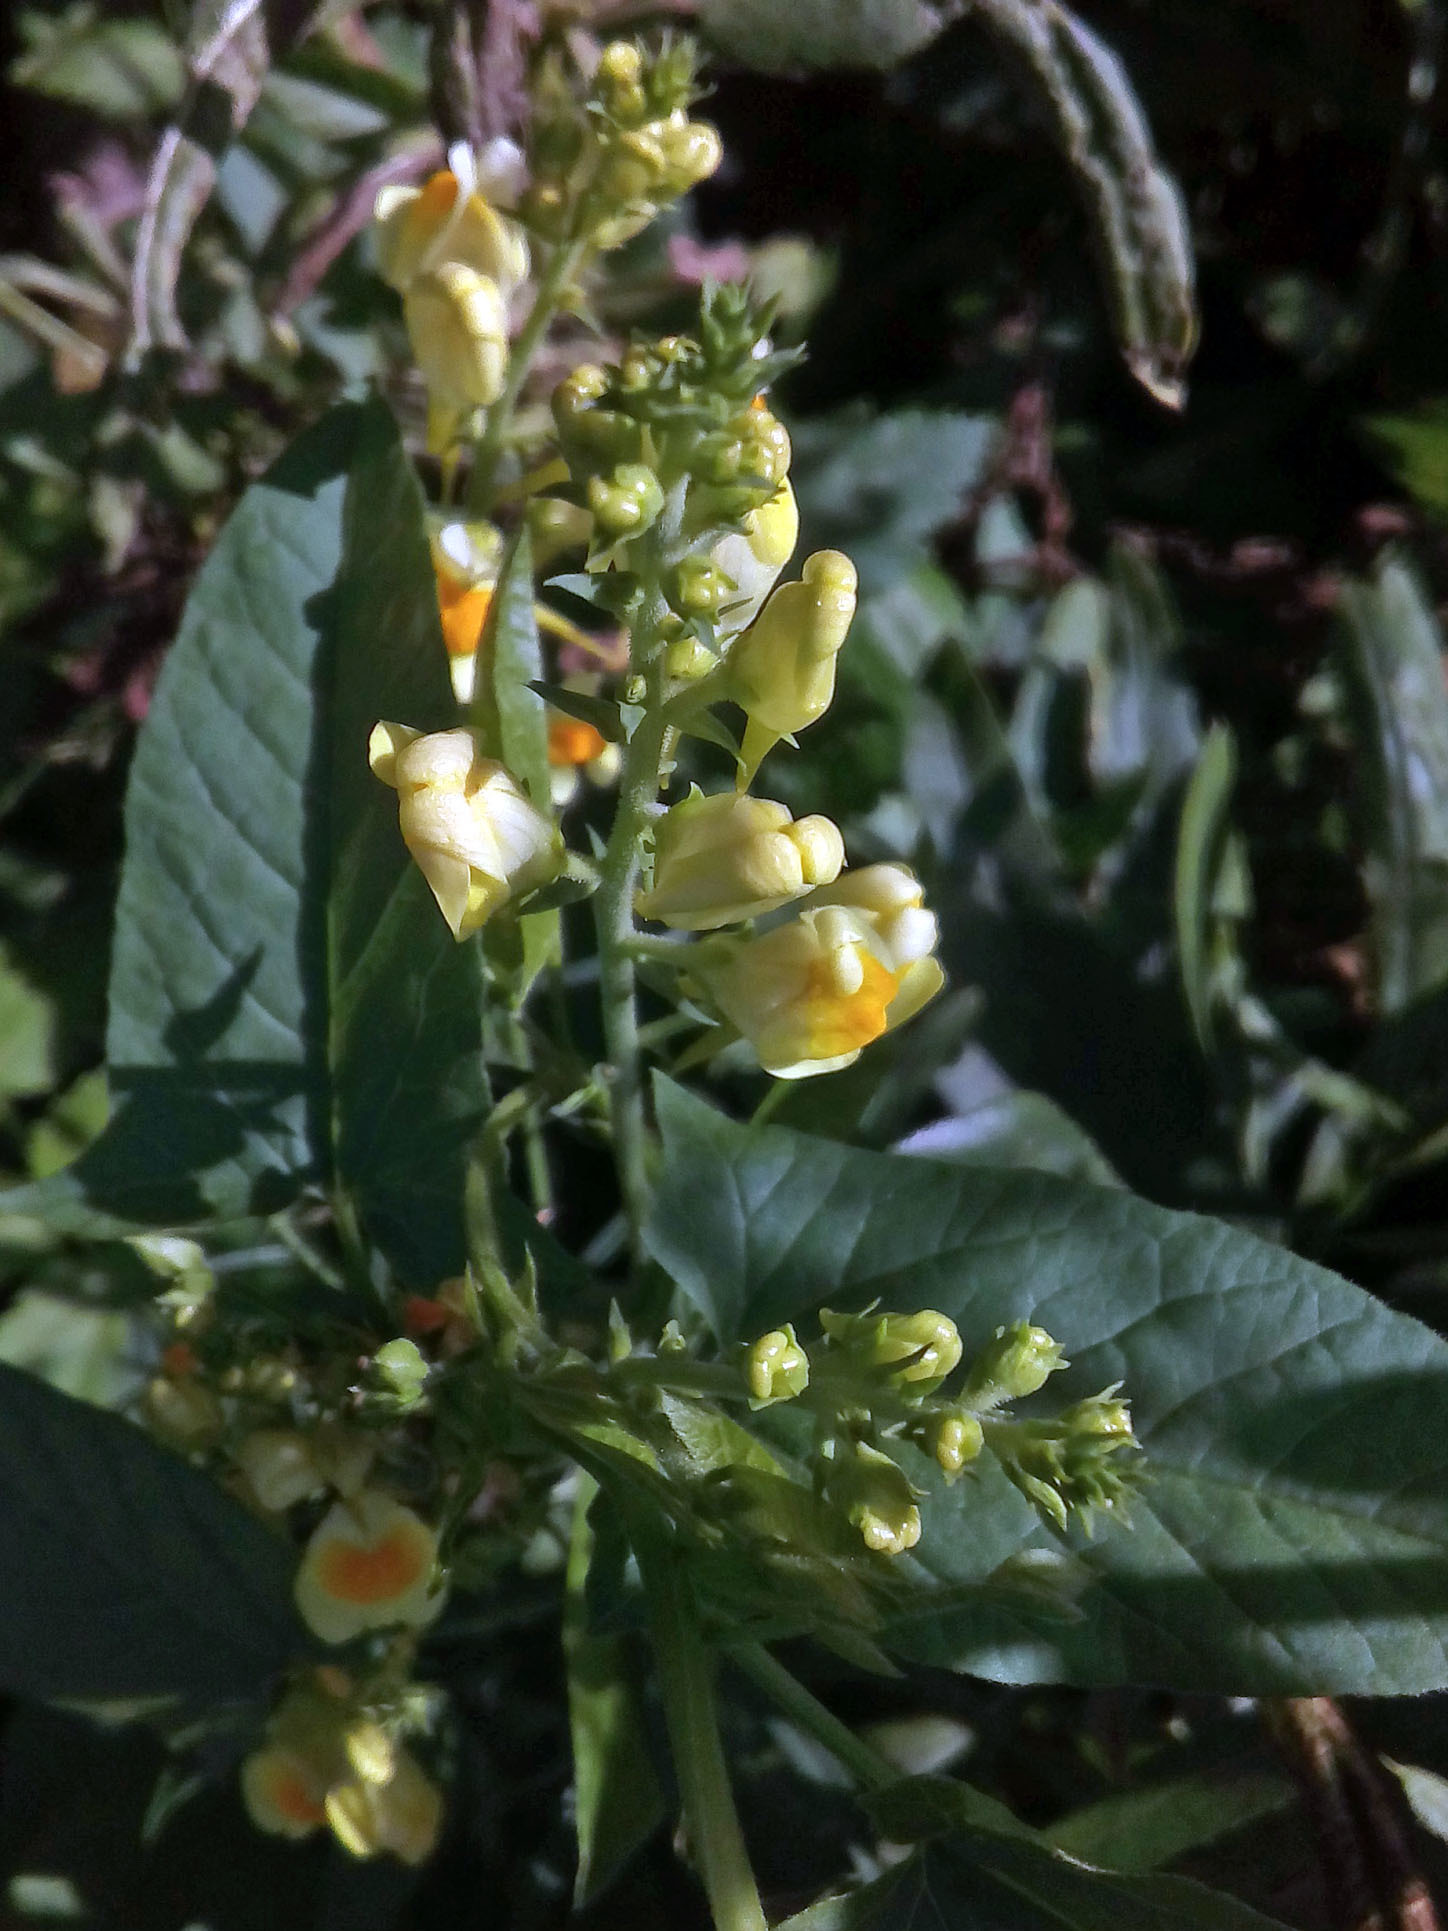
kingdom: Plantae
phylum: Tracheophyta
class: Magnoliopsida
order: Lamiales
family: Plantaginaceae
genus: Linaria
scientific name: Linaria vulgaris
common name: Butter and eggs
